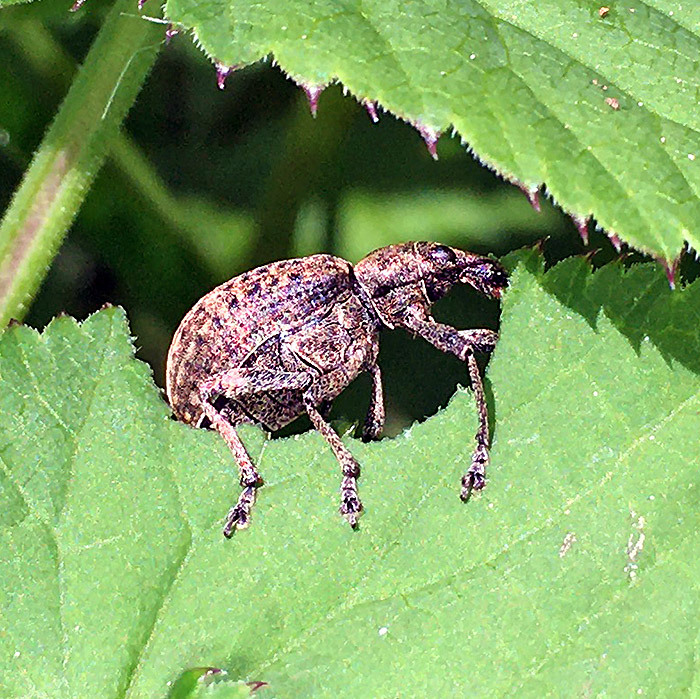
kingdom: Animalia
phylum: Arthropoda
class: Insecta
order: Coleoptera
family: Curculionidae
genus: Liophloeus
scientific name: Liophloeus tessulatus
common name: Weevil
